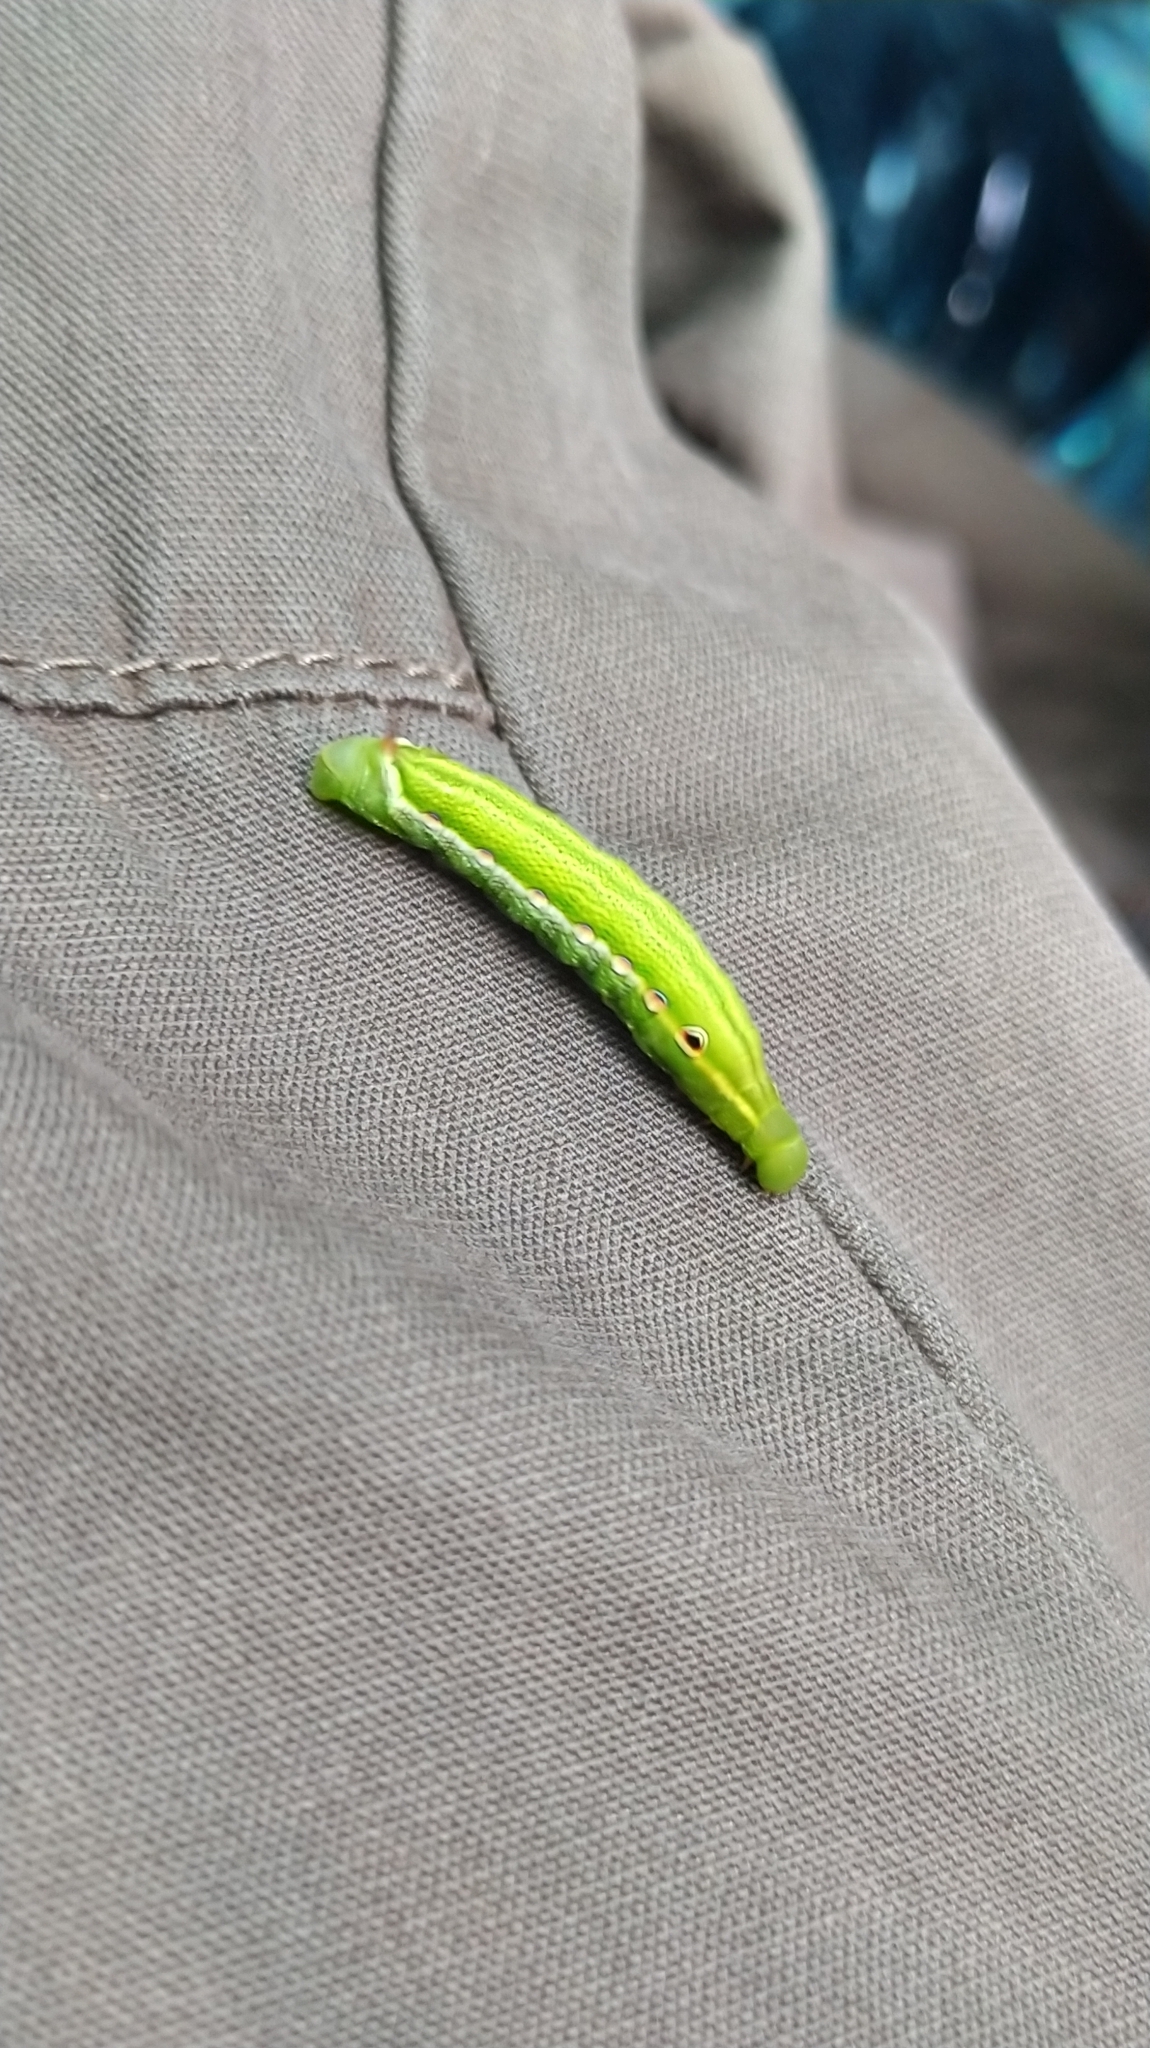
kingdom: Animalia
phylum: Arthropoda
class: Insecta
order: Lepidoptera
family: Sphingidae
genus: Xylophanes
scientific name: Xylophanes tersa
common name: Tersa sphinx
